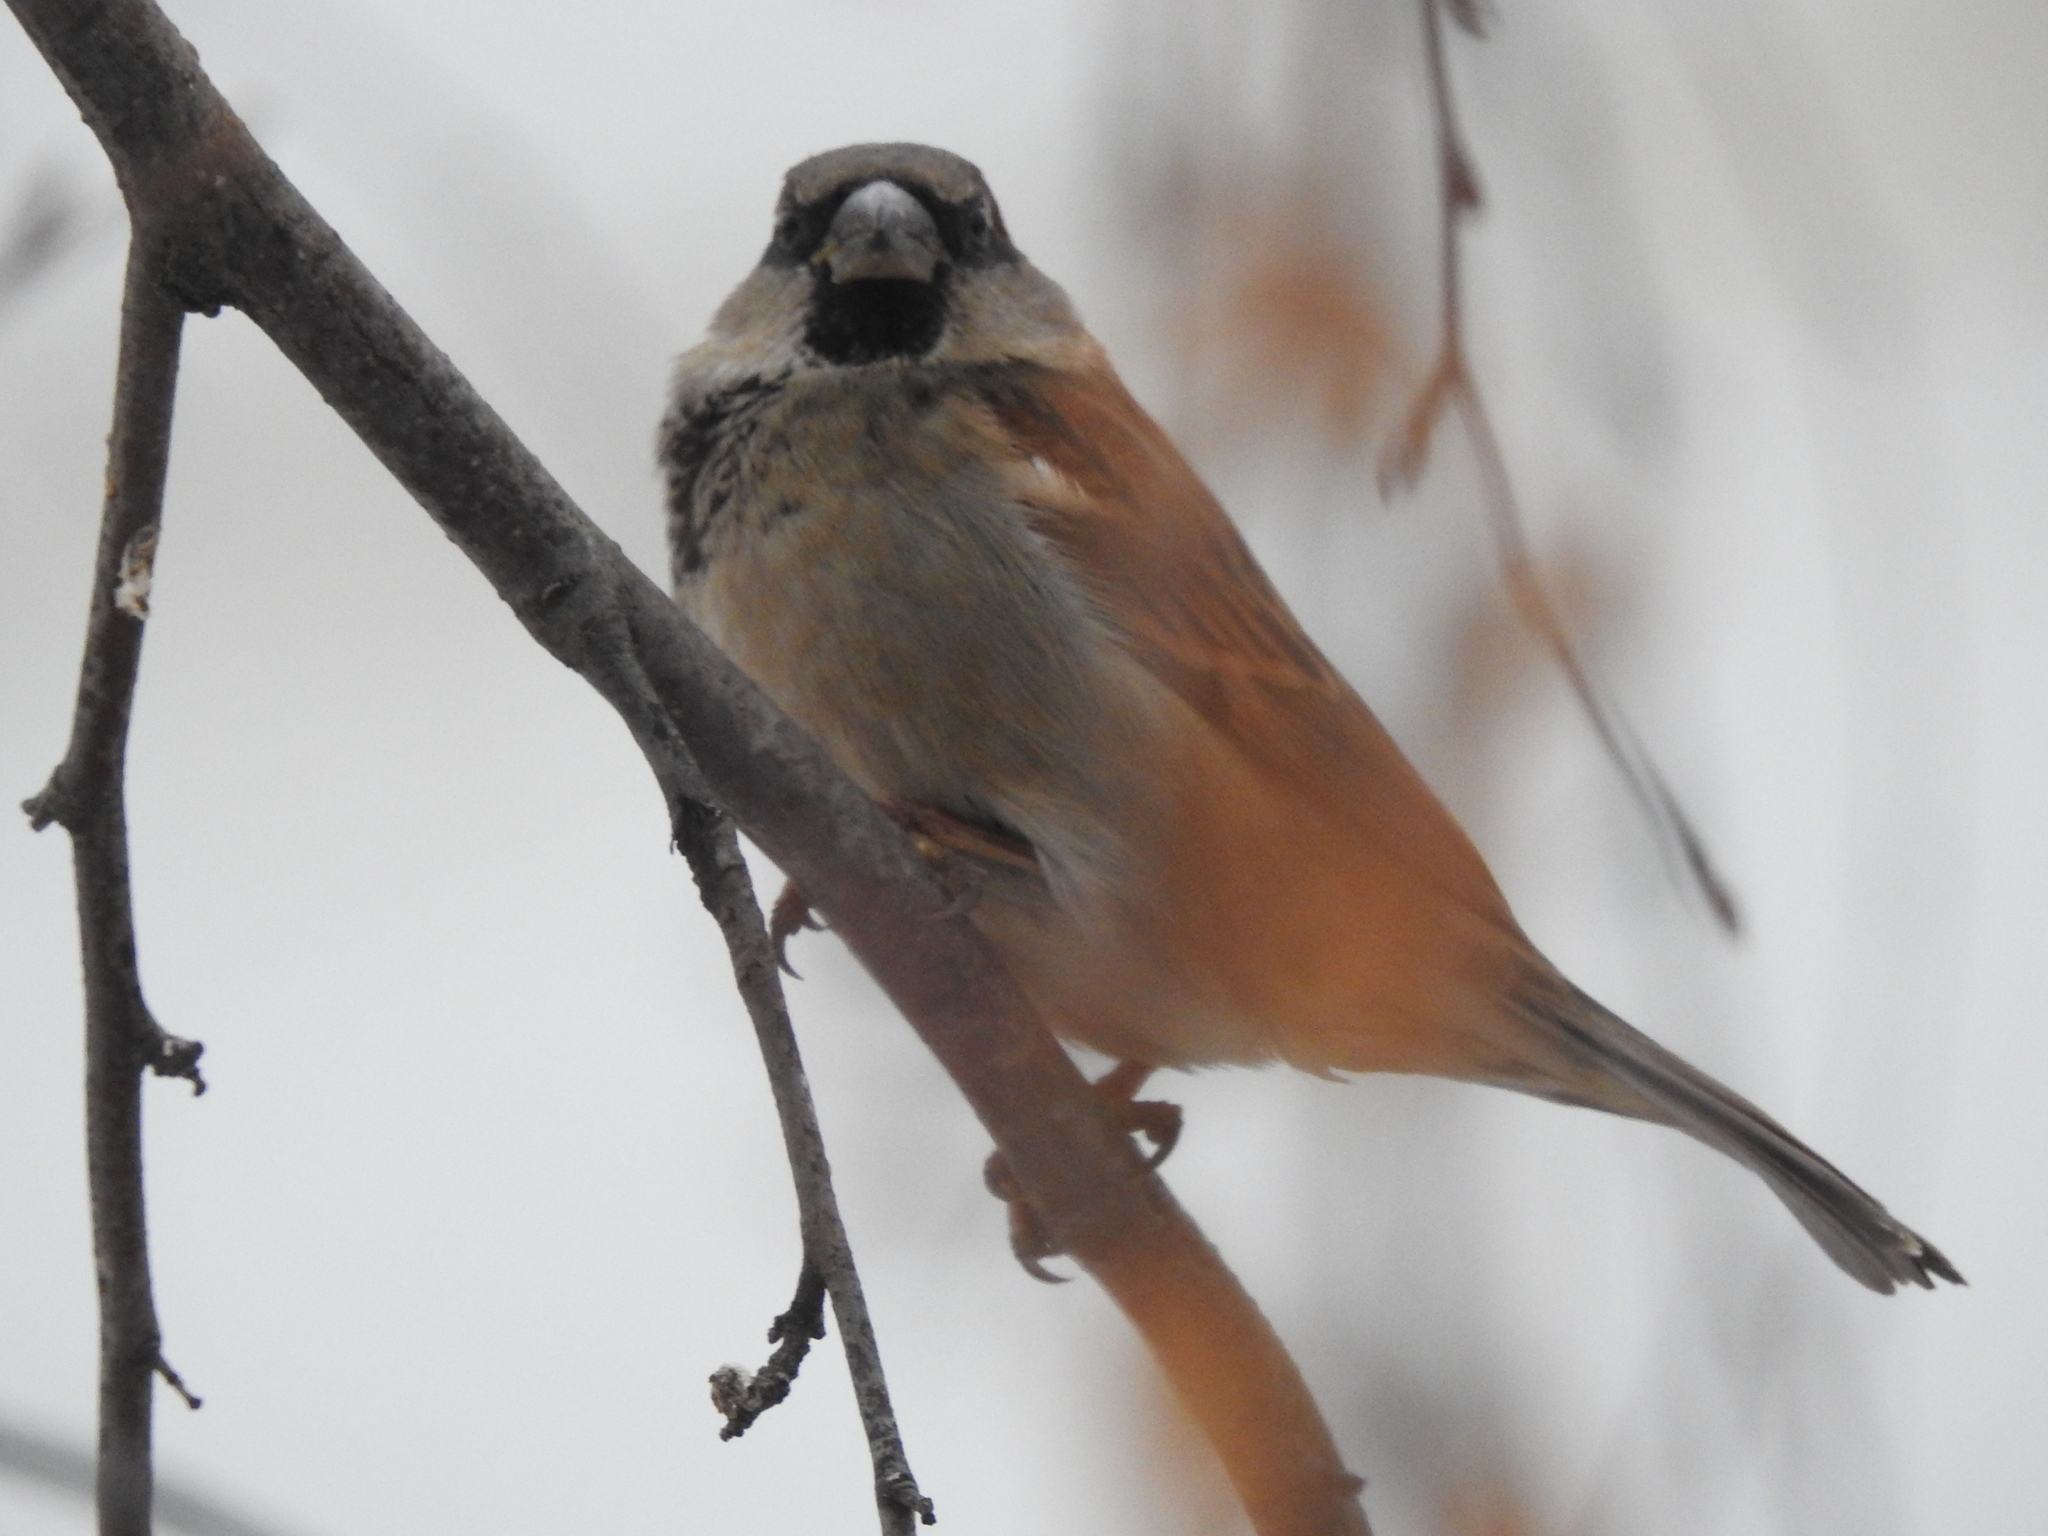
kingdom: Animalia
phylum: Chordata
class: Aves
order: Passeriformes
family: Passeridae
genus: Passer
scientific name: Passer domesticus
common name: House sparrow
